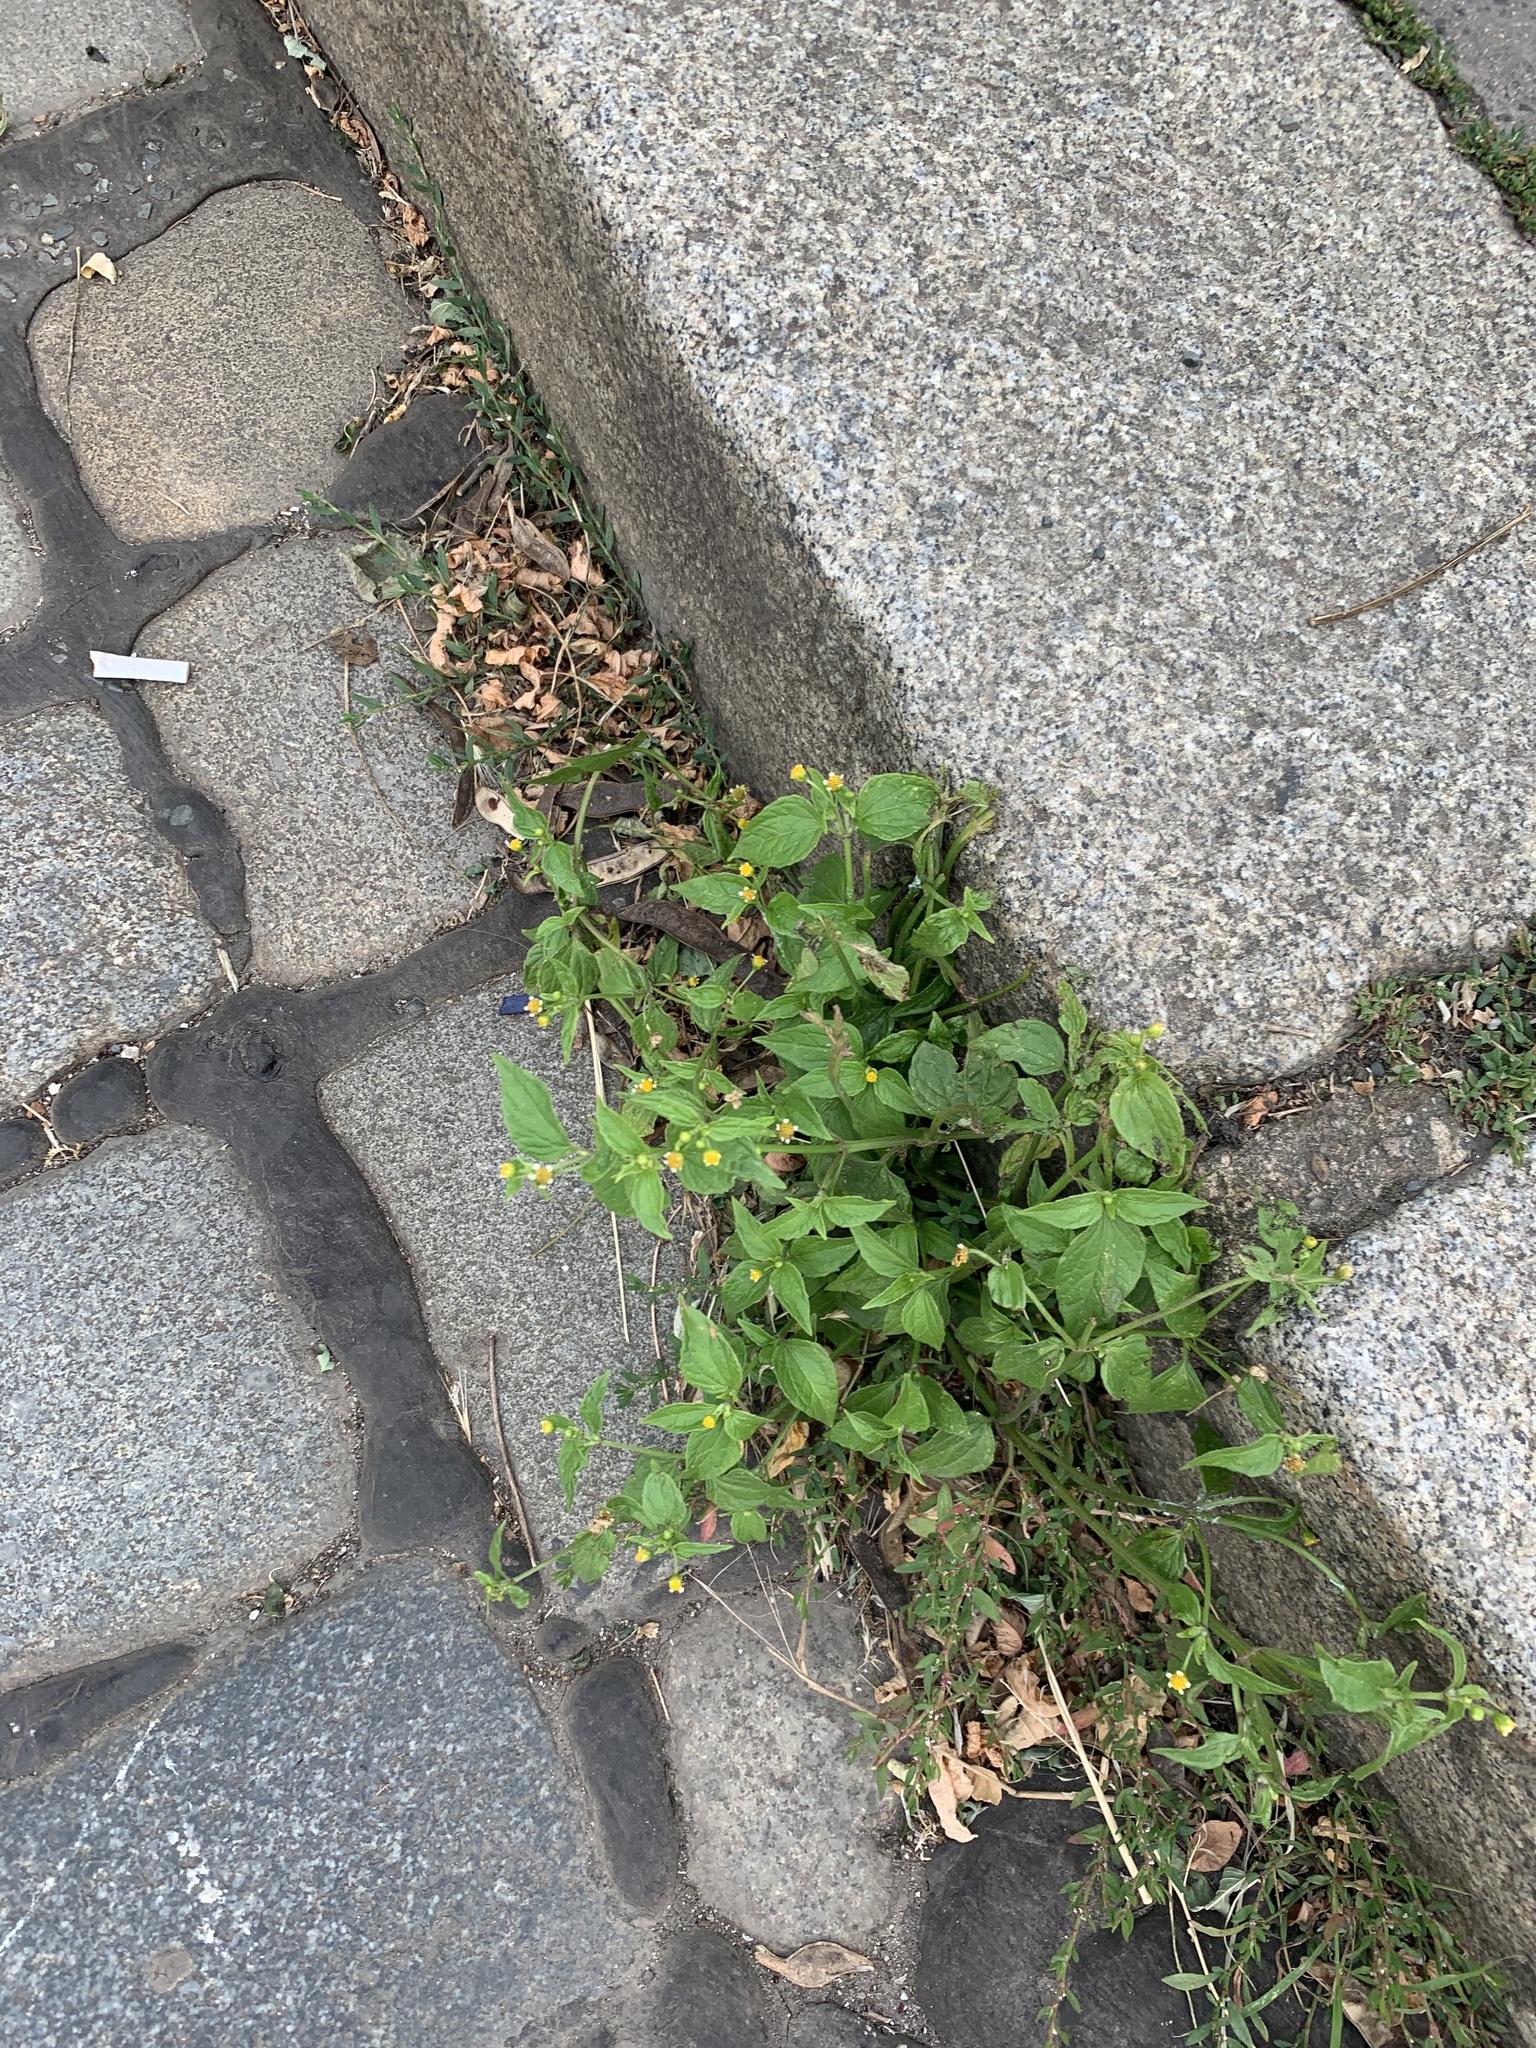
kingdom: Plantae
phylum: Tracheophyta
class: Magnoliopsida
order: Asterales
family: Asteraceae
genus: Galinsoga
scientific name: Galinsoga parviflora
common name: Gallant soldier
